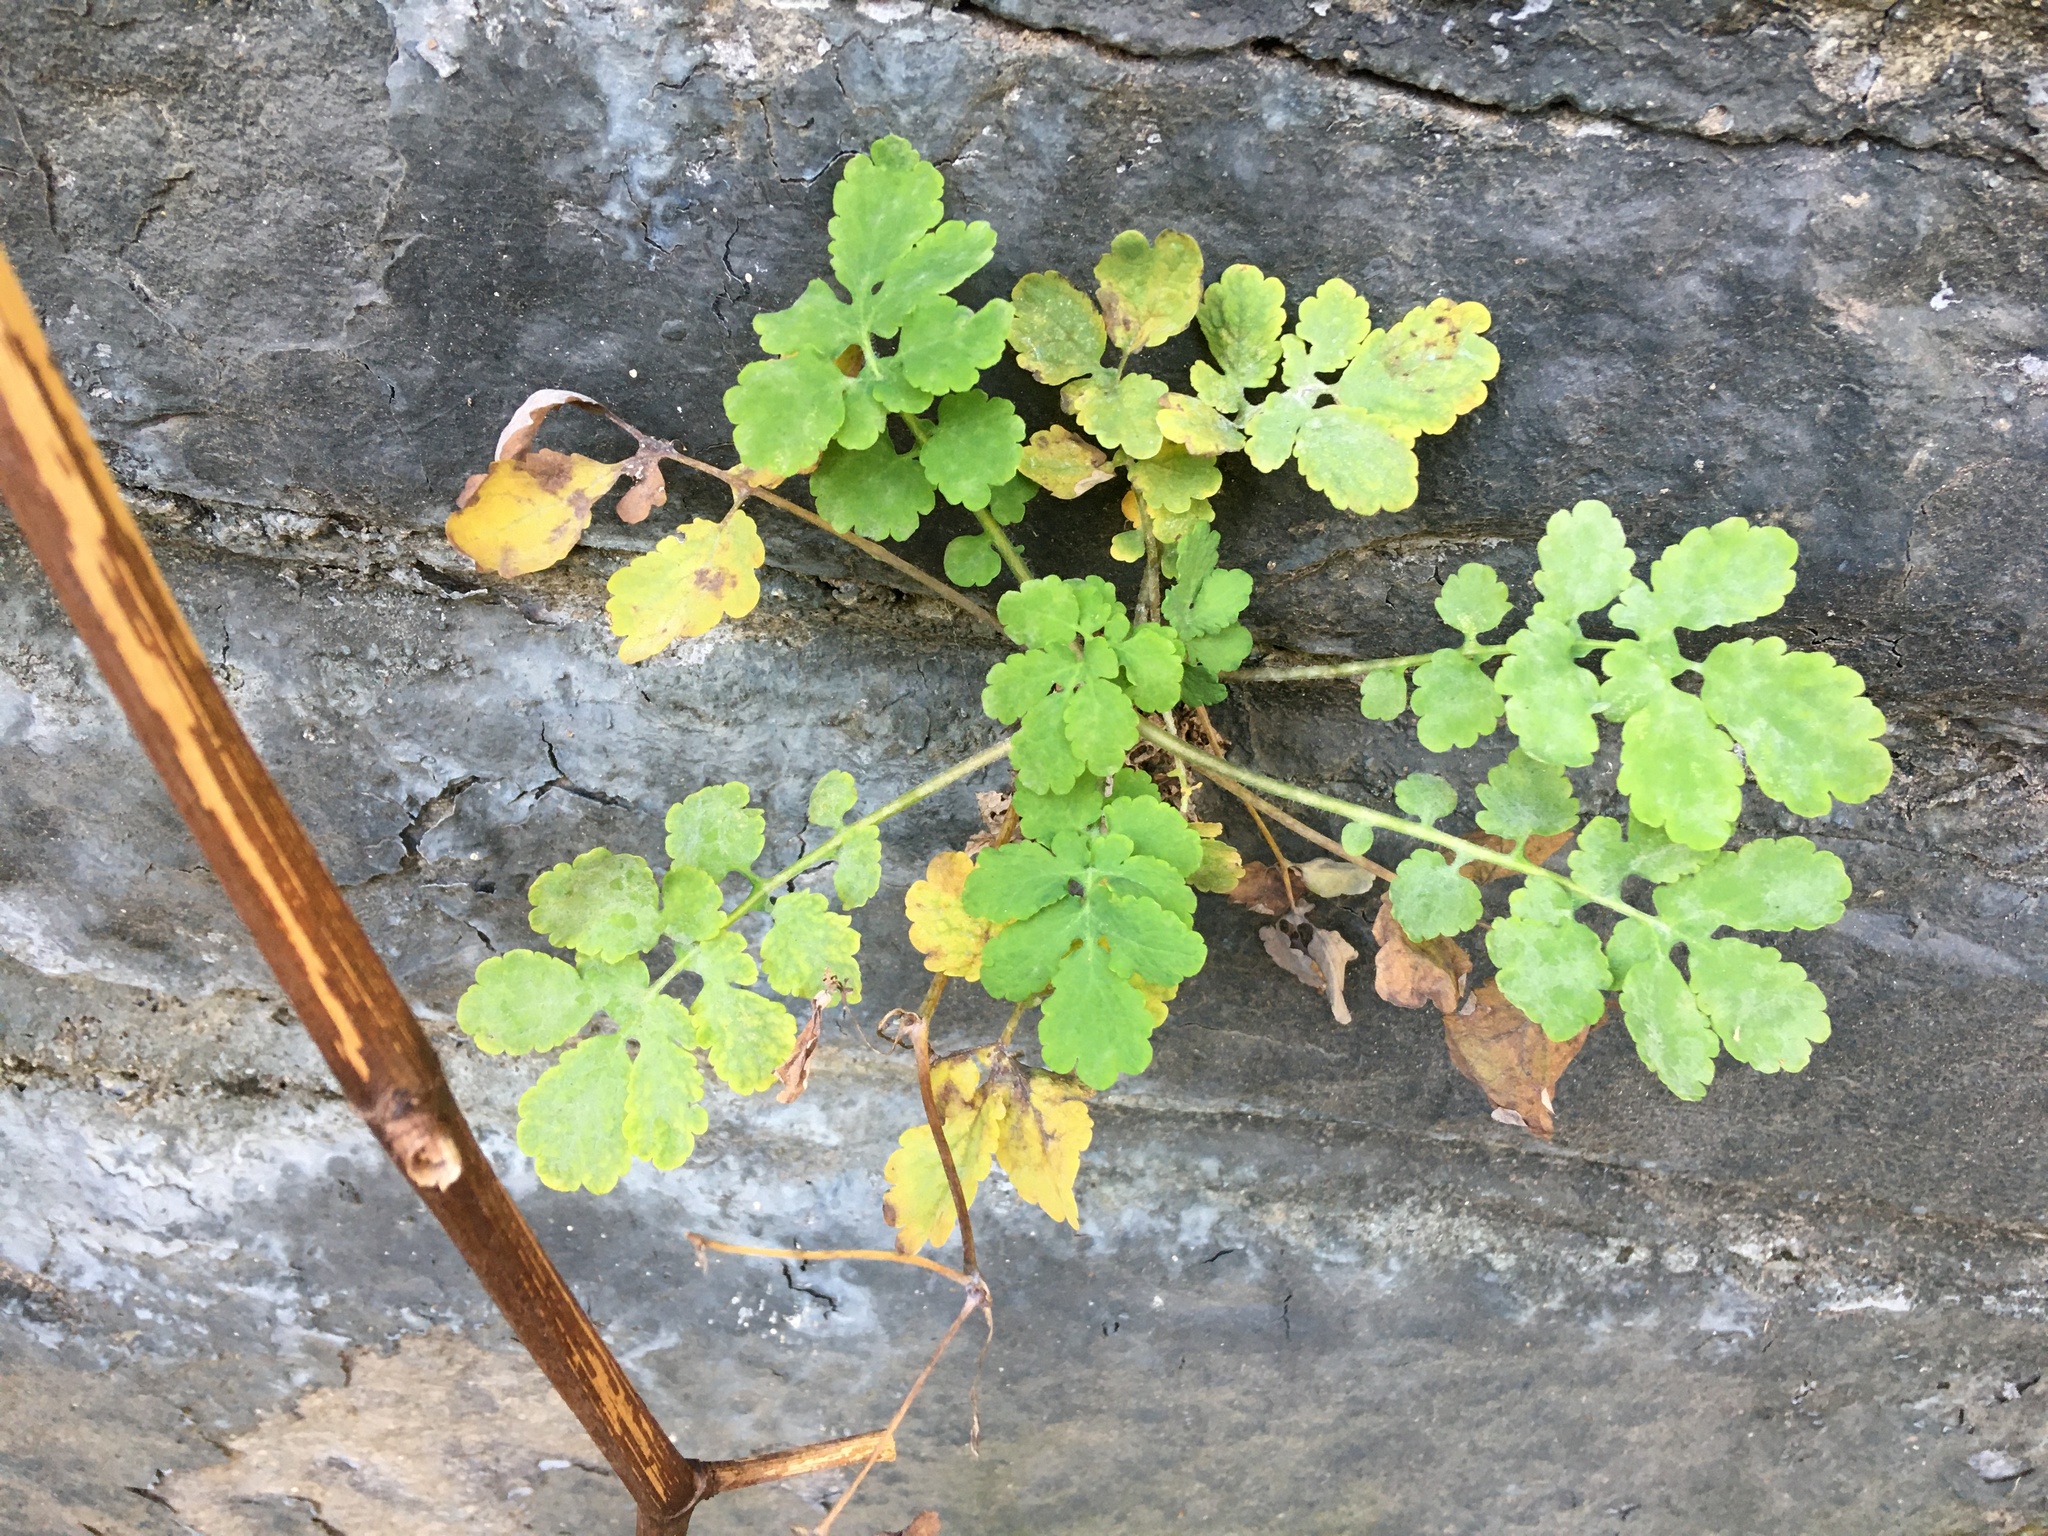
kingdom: Plantae
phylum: Tracheophyta
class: Magnoliopsida
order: Ranunculales
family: Papaveraceae
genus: Chelidonium
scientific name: Chelidonium majus
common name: Greater celandine
